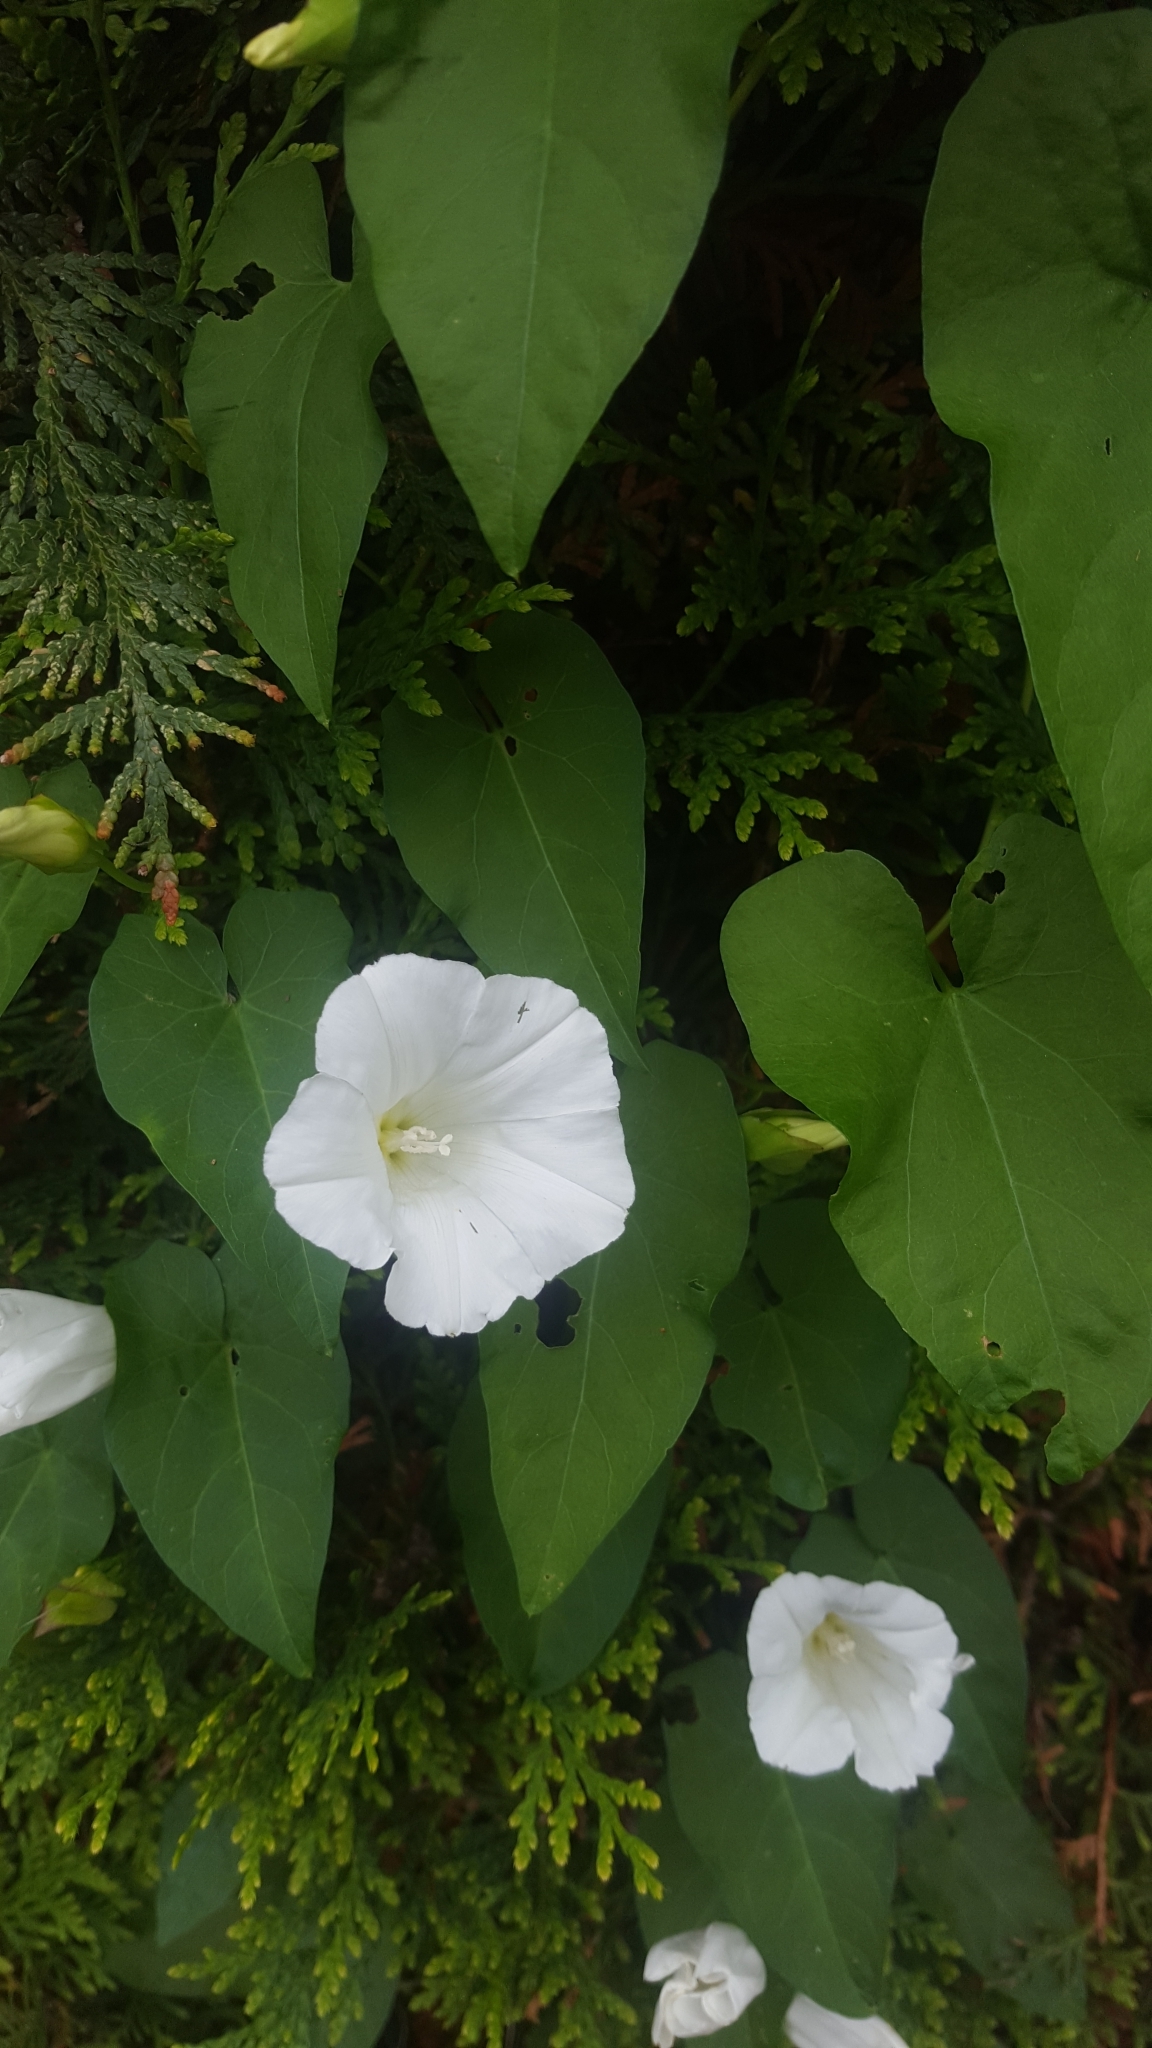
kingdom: Plantae
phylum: Tracheophyta
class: Magnoliopsida
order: Solanales
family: Convolvulaceae
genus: Calystegia
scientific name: Calystegia sepium
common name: Hedge bindweed
